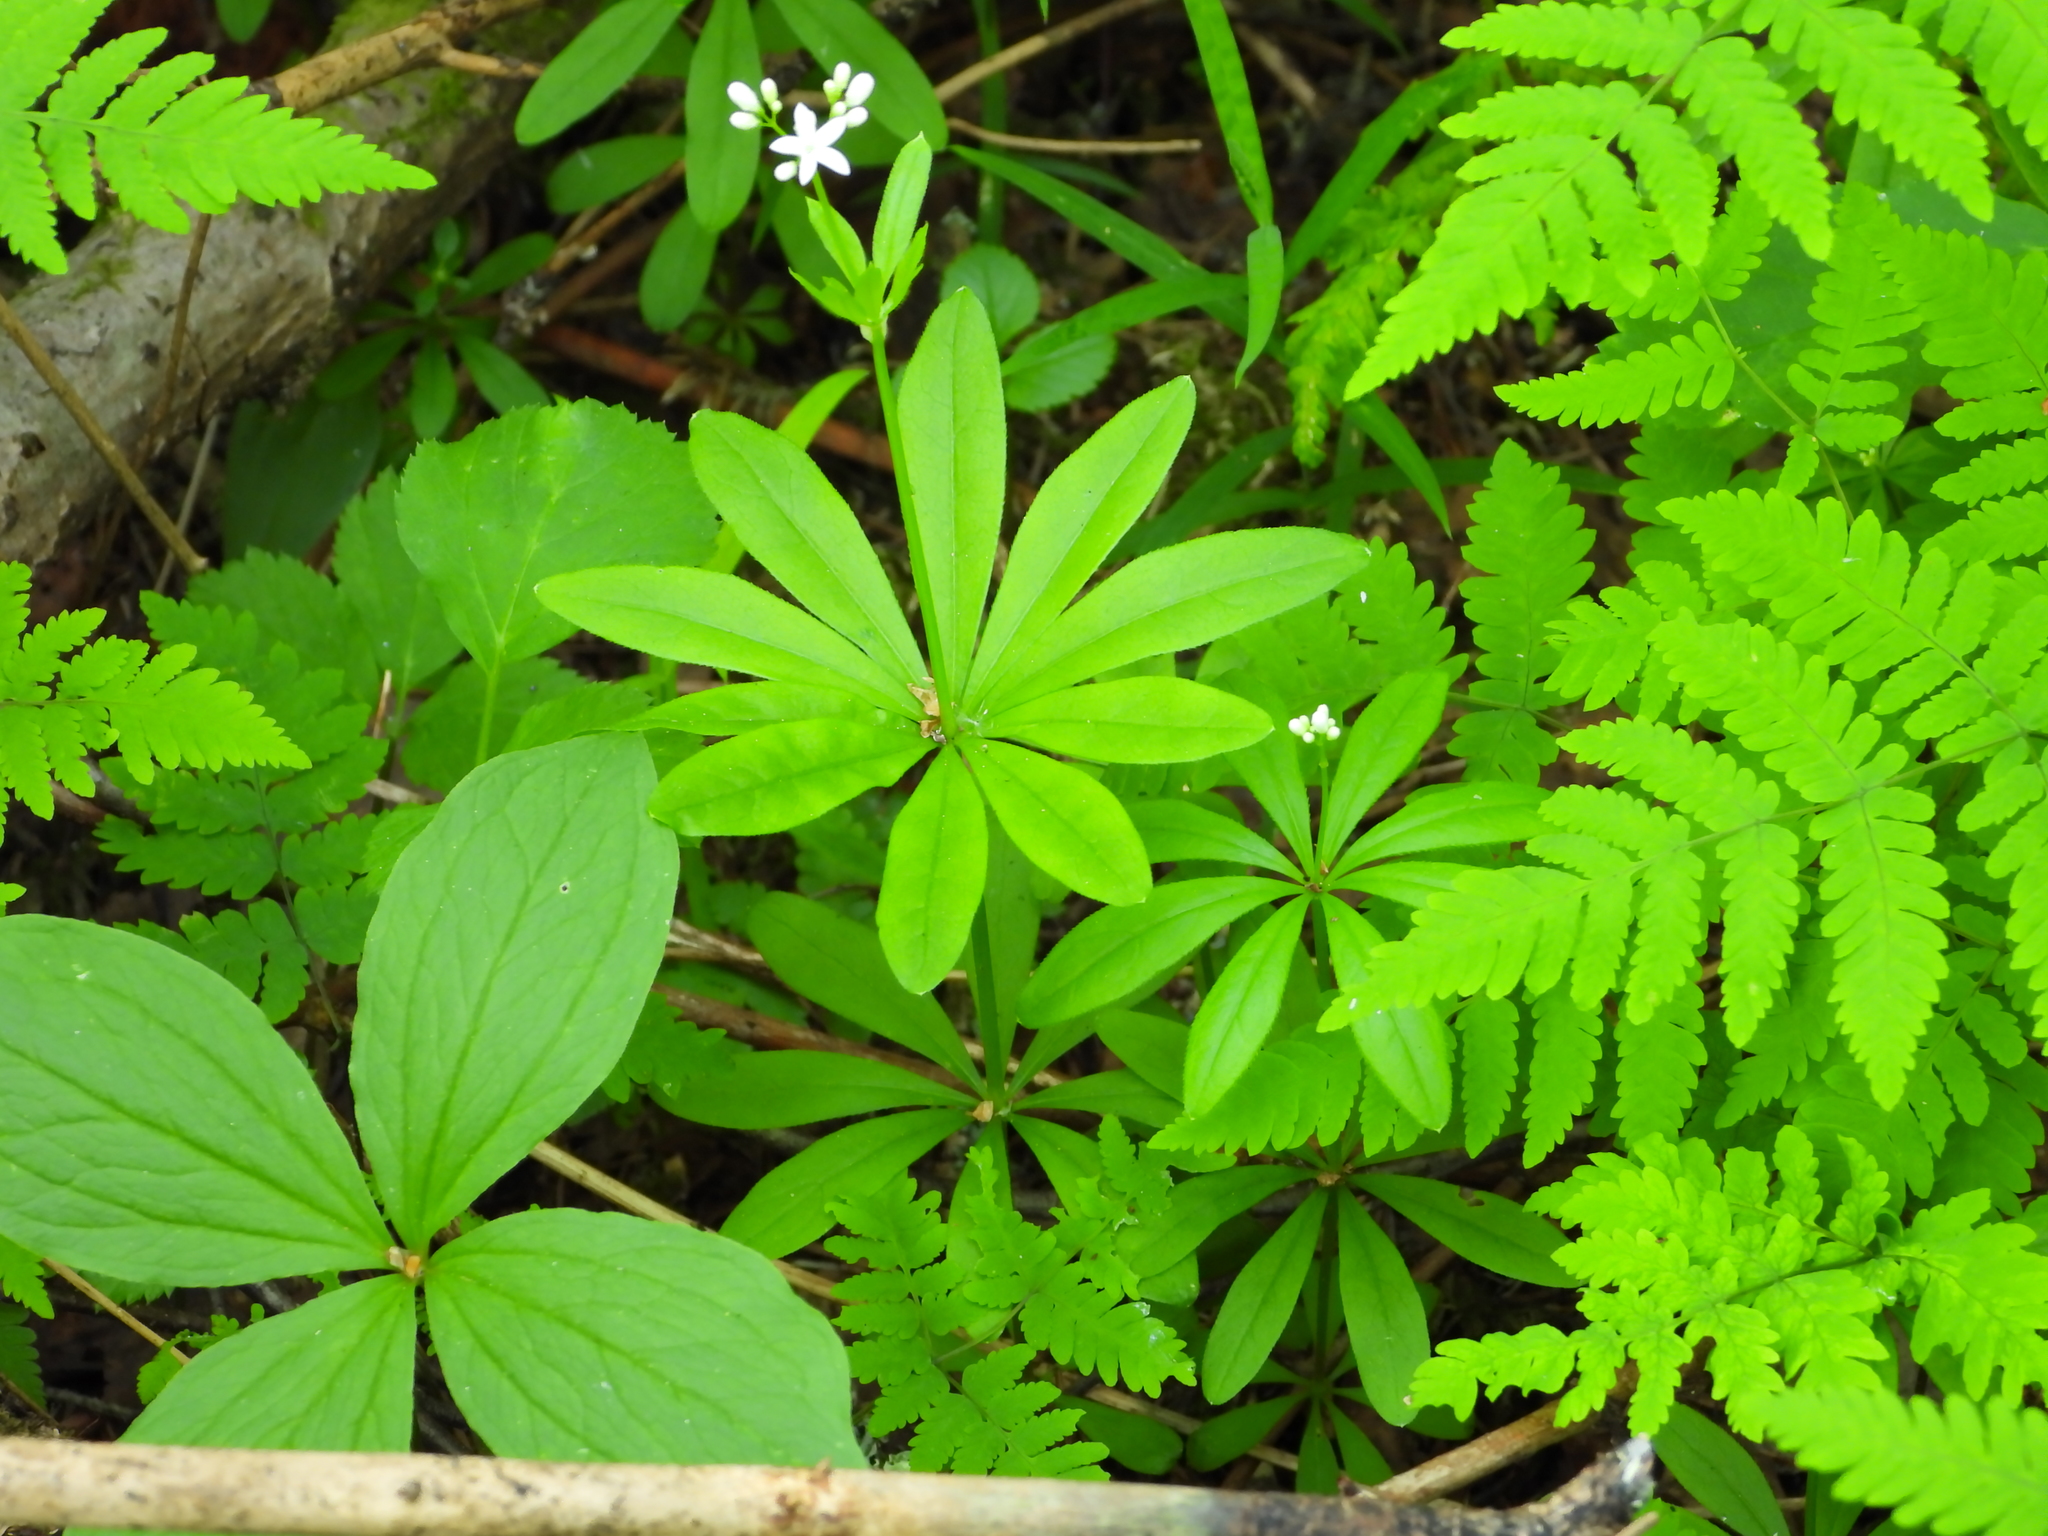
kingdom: Plantae
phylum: Tracheophyta
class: Magnoliopsida
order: Gentianales
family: Rubiaceae
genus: Galium
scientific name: Galium odoratum
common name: Sweet woodruff
